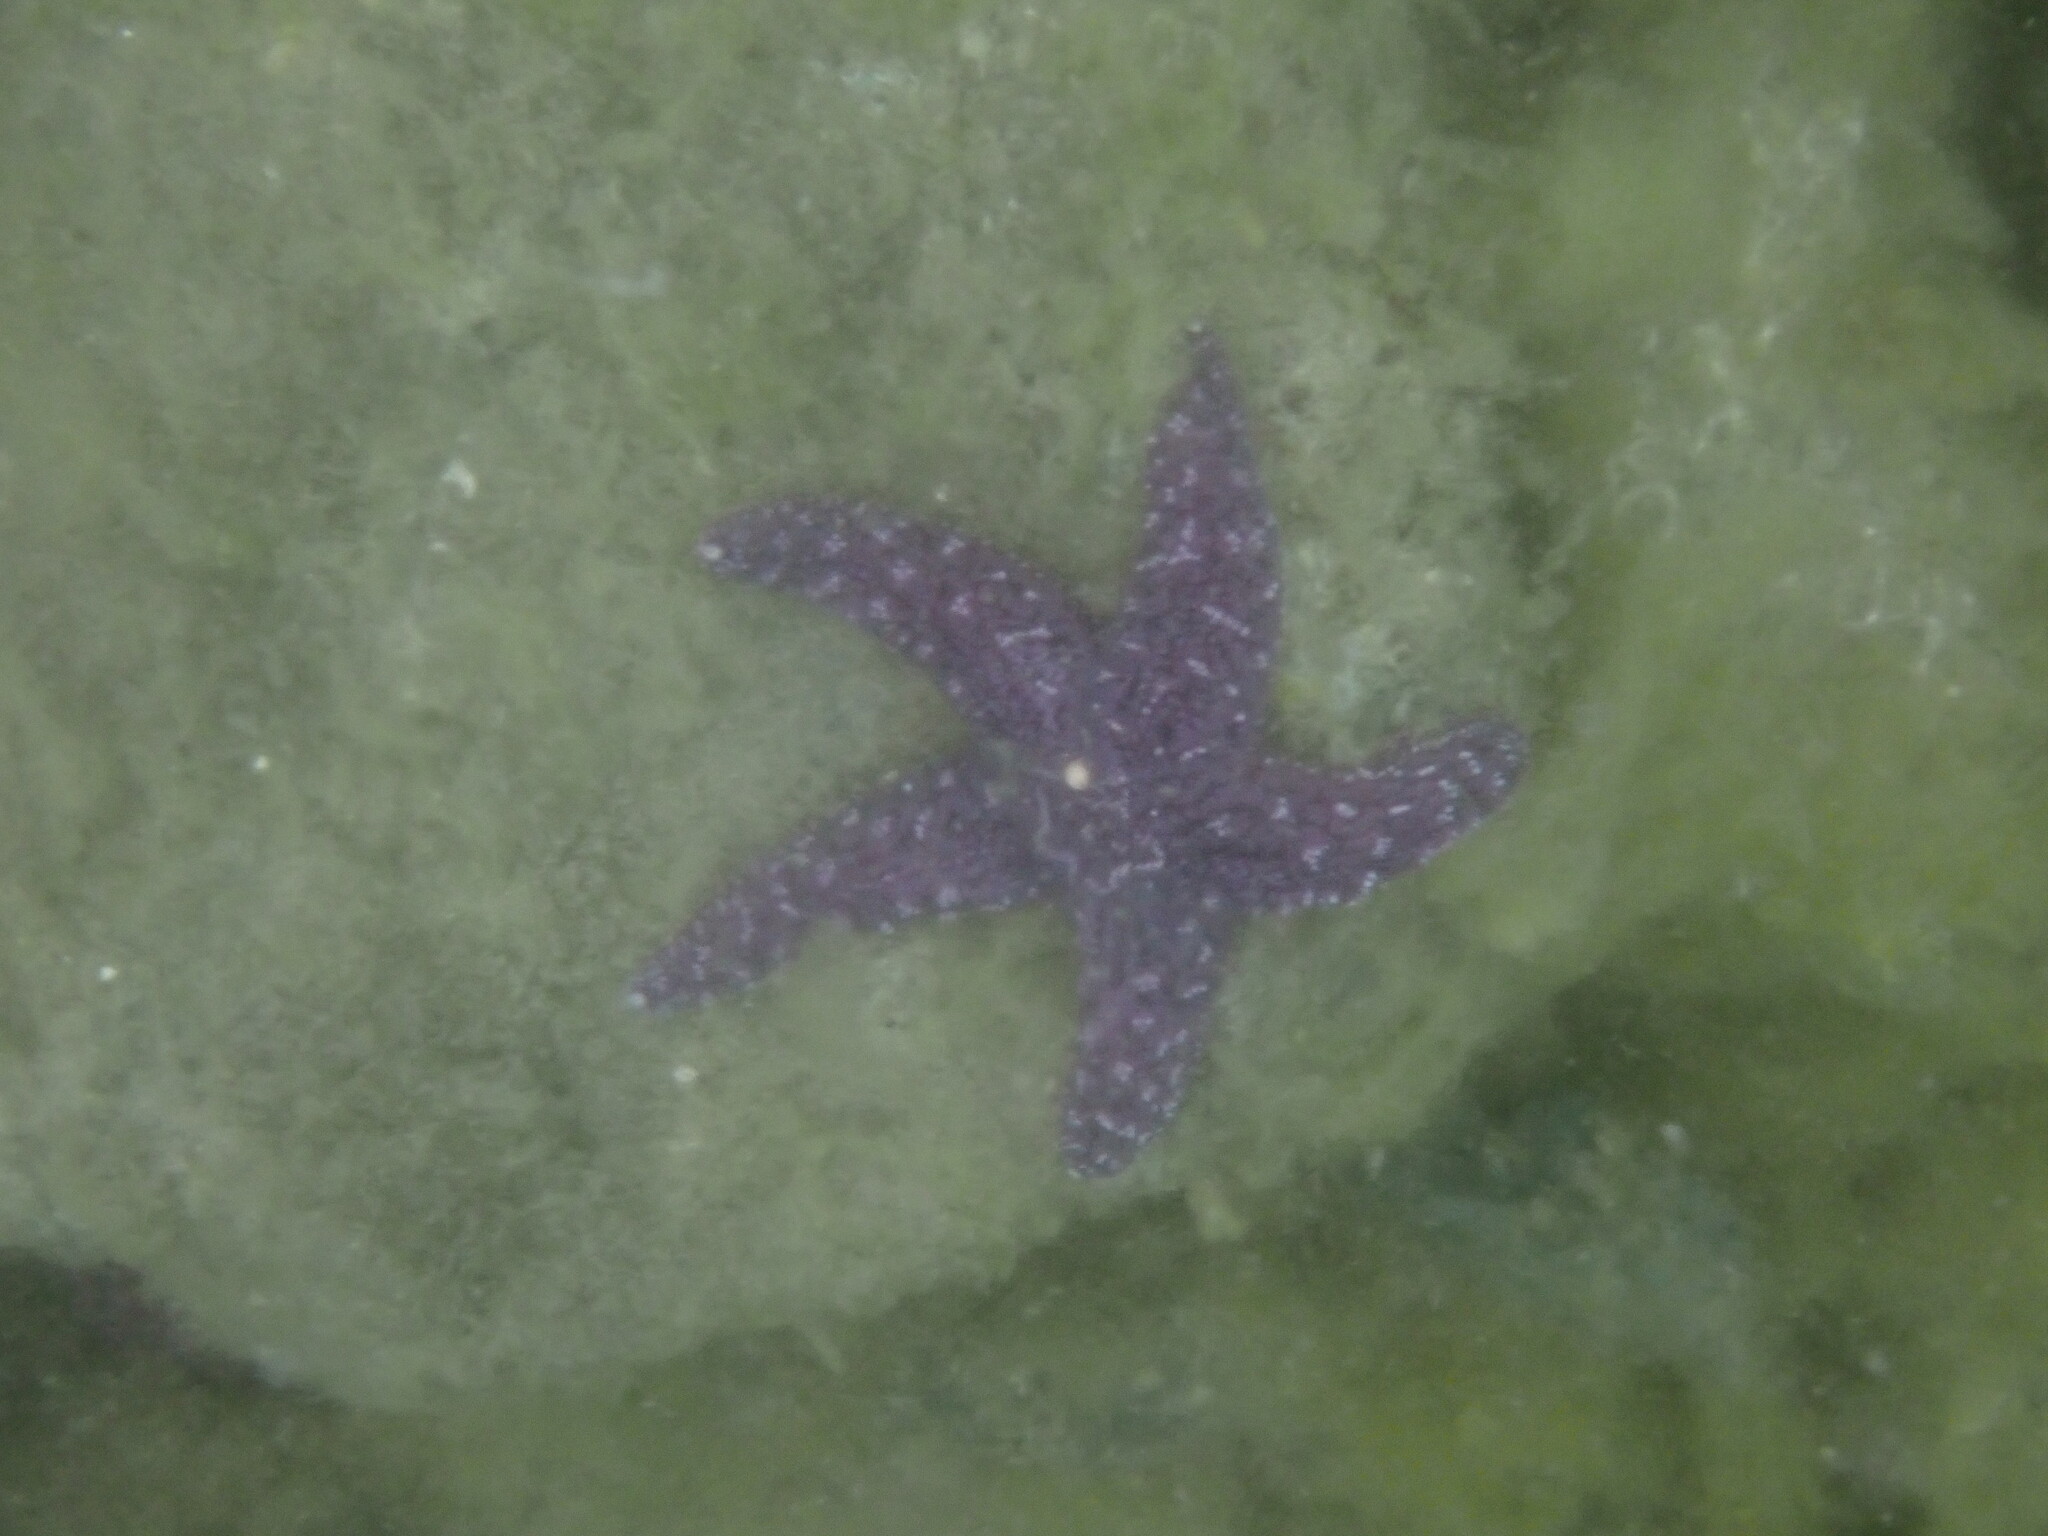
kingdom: Animalia
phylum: Echinodermata
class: Asteroidea
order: Forcipulatida
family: Asteriidae
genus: Pisaster
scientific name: Pisaster ochraceus
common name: Ochre stars
